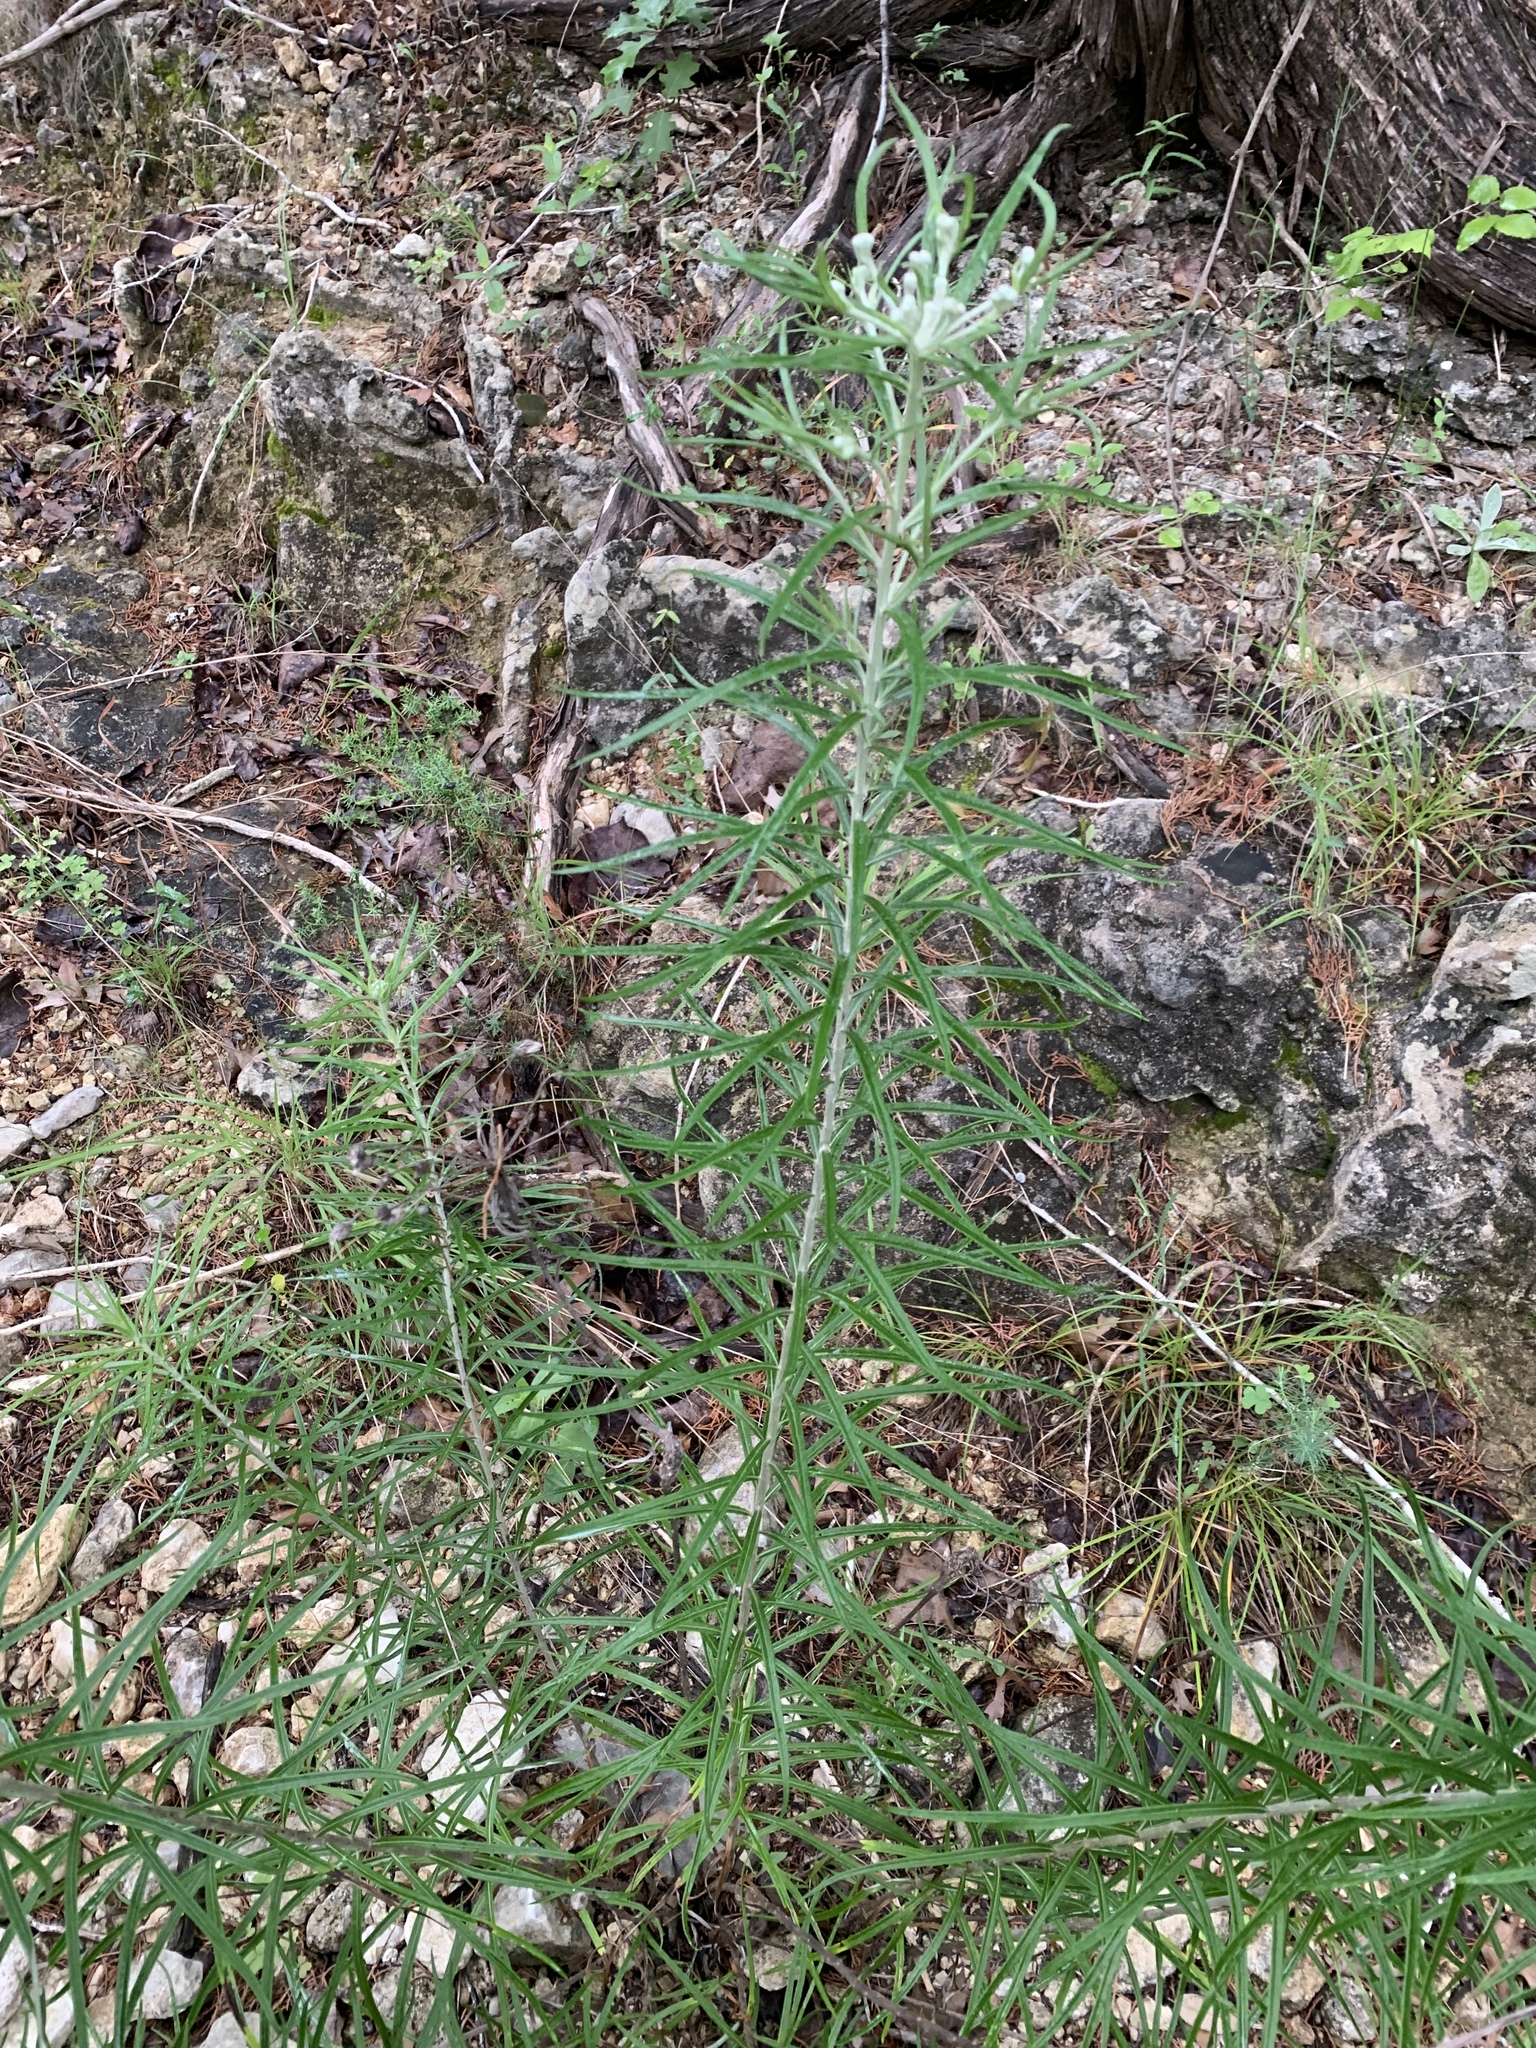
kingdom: Plantae
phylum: Tracheophyta
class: Magnoliopsida
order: Asterales
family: Asteraceae
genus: Vernonia
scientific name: Vernonia lindheimeri
